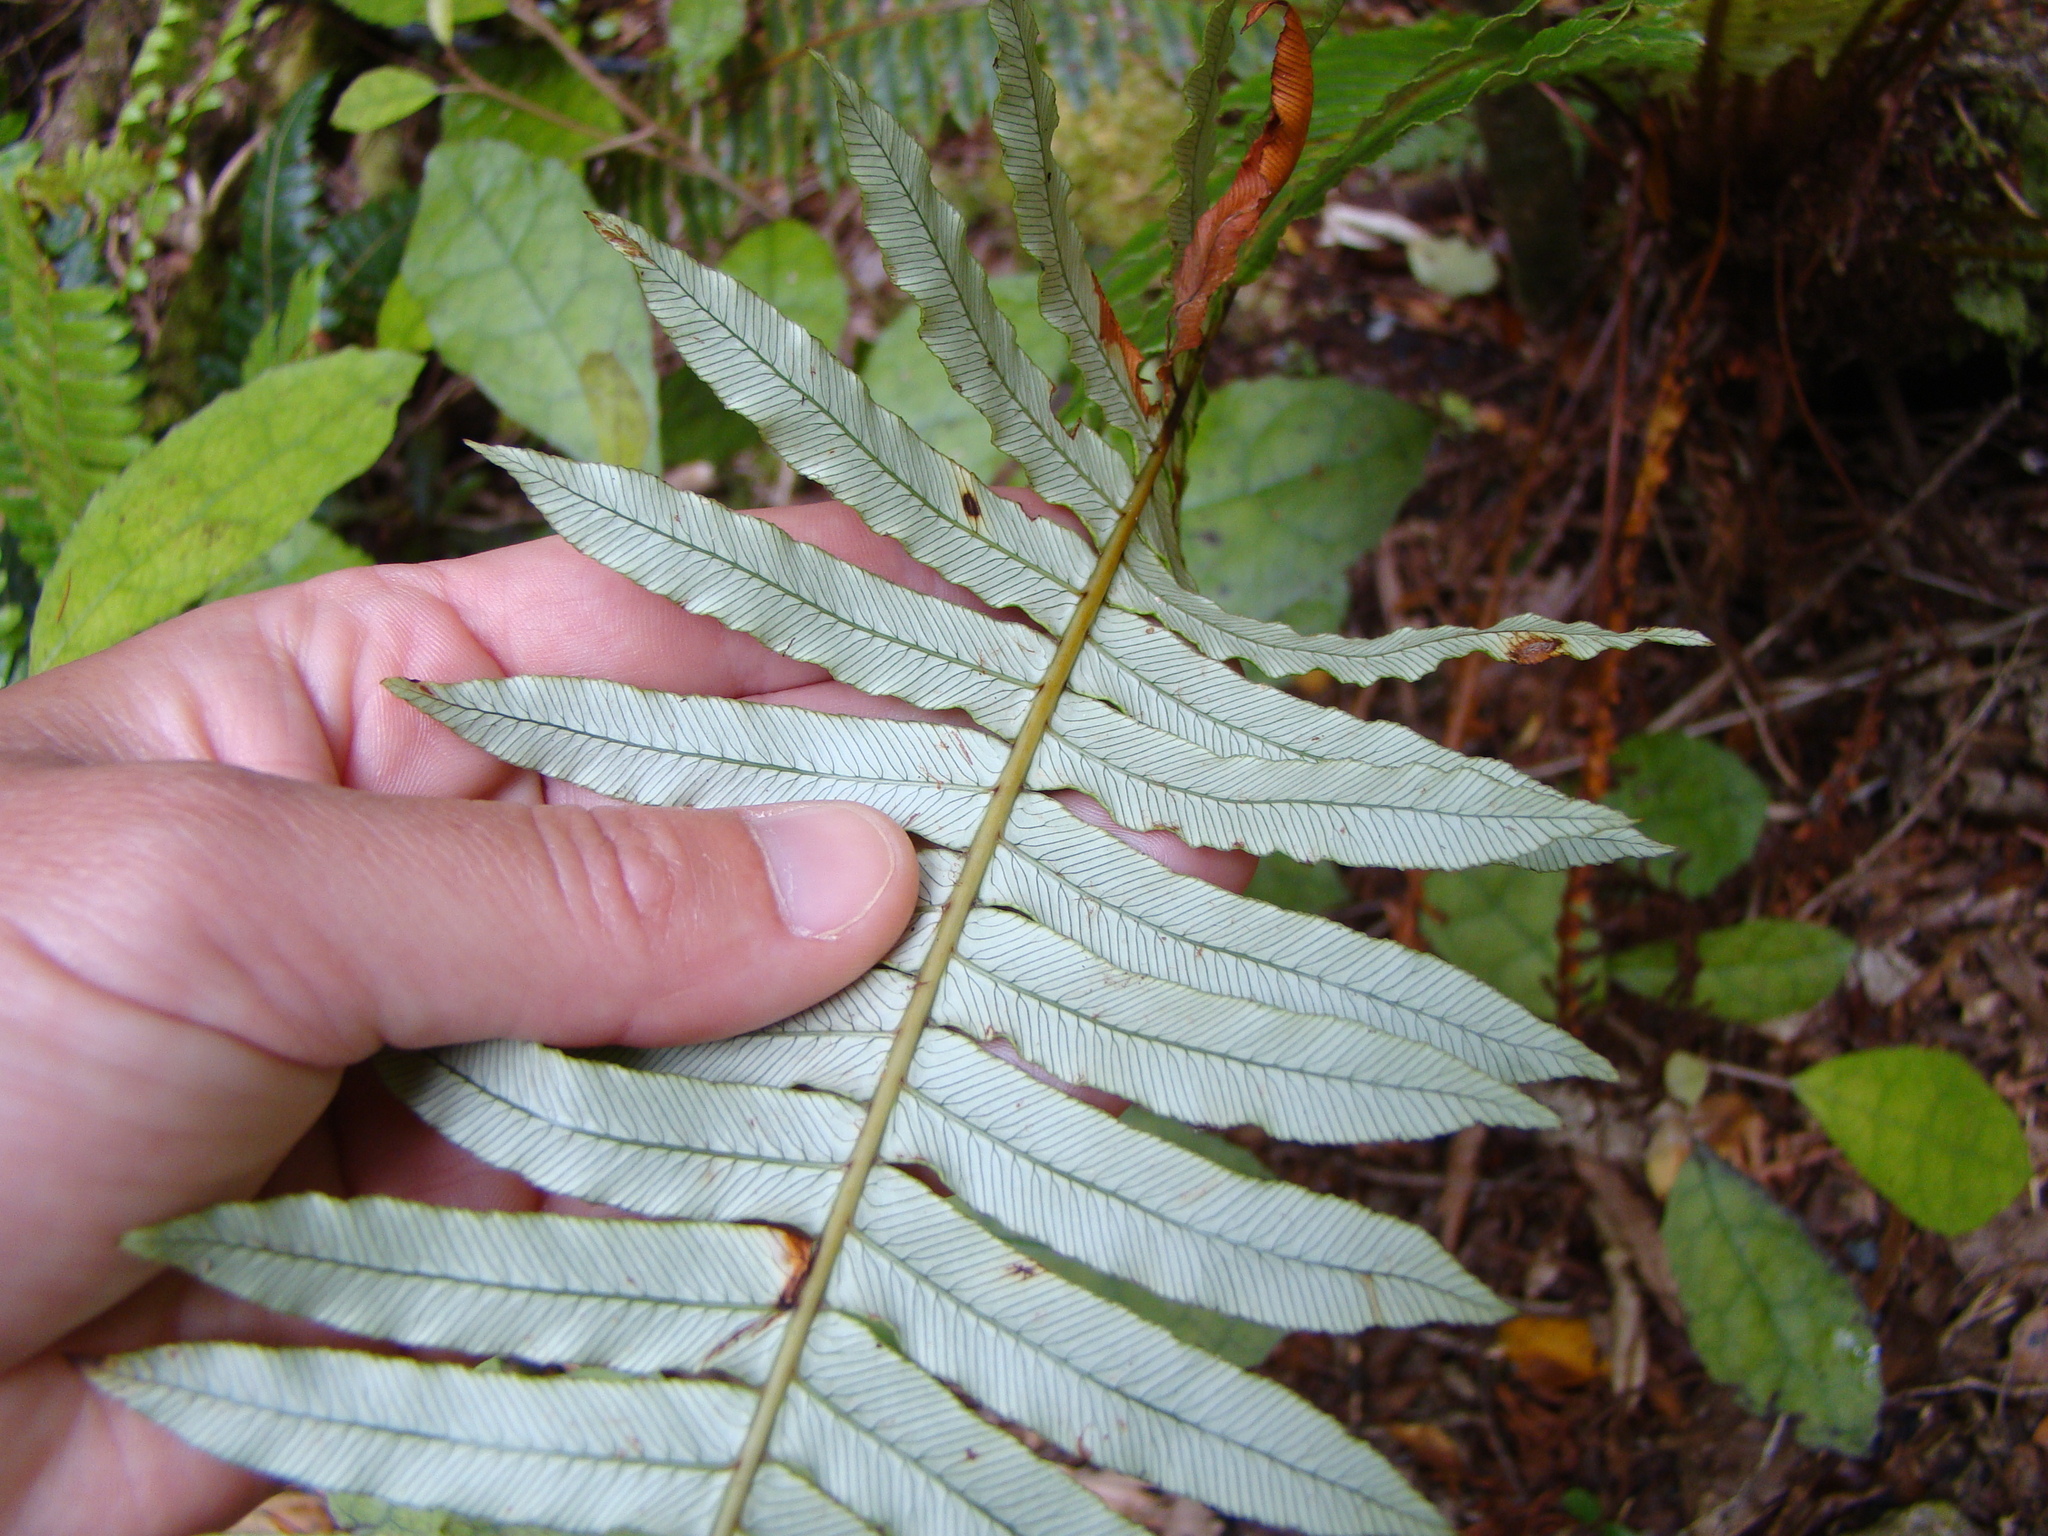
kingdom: Plantae
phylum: Tracheophyta
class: Polypodiopsida
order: Polypodiales
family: Blechnaceae
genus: Lomaria
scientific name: Lomaria discolor
